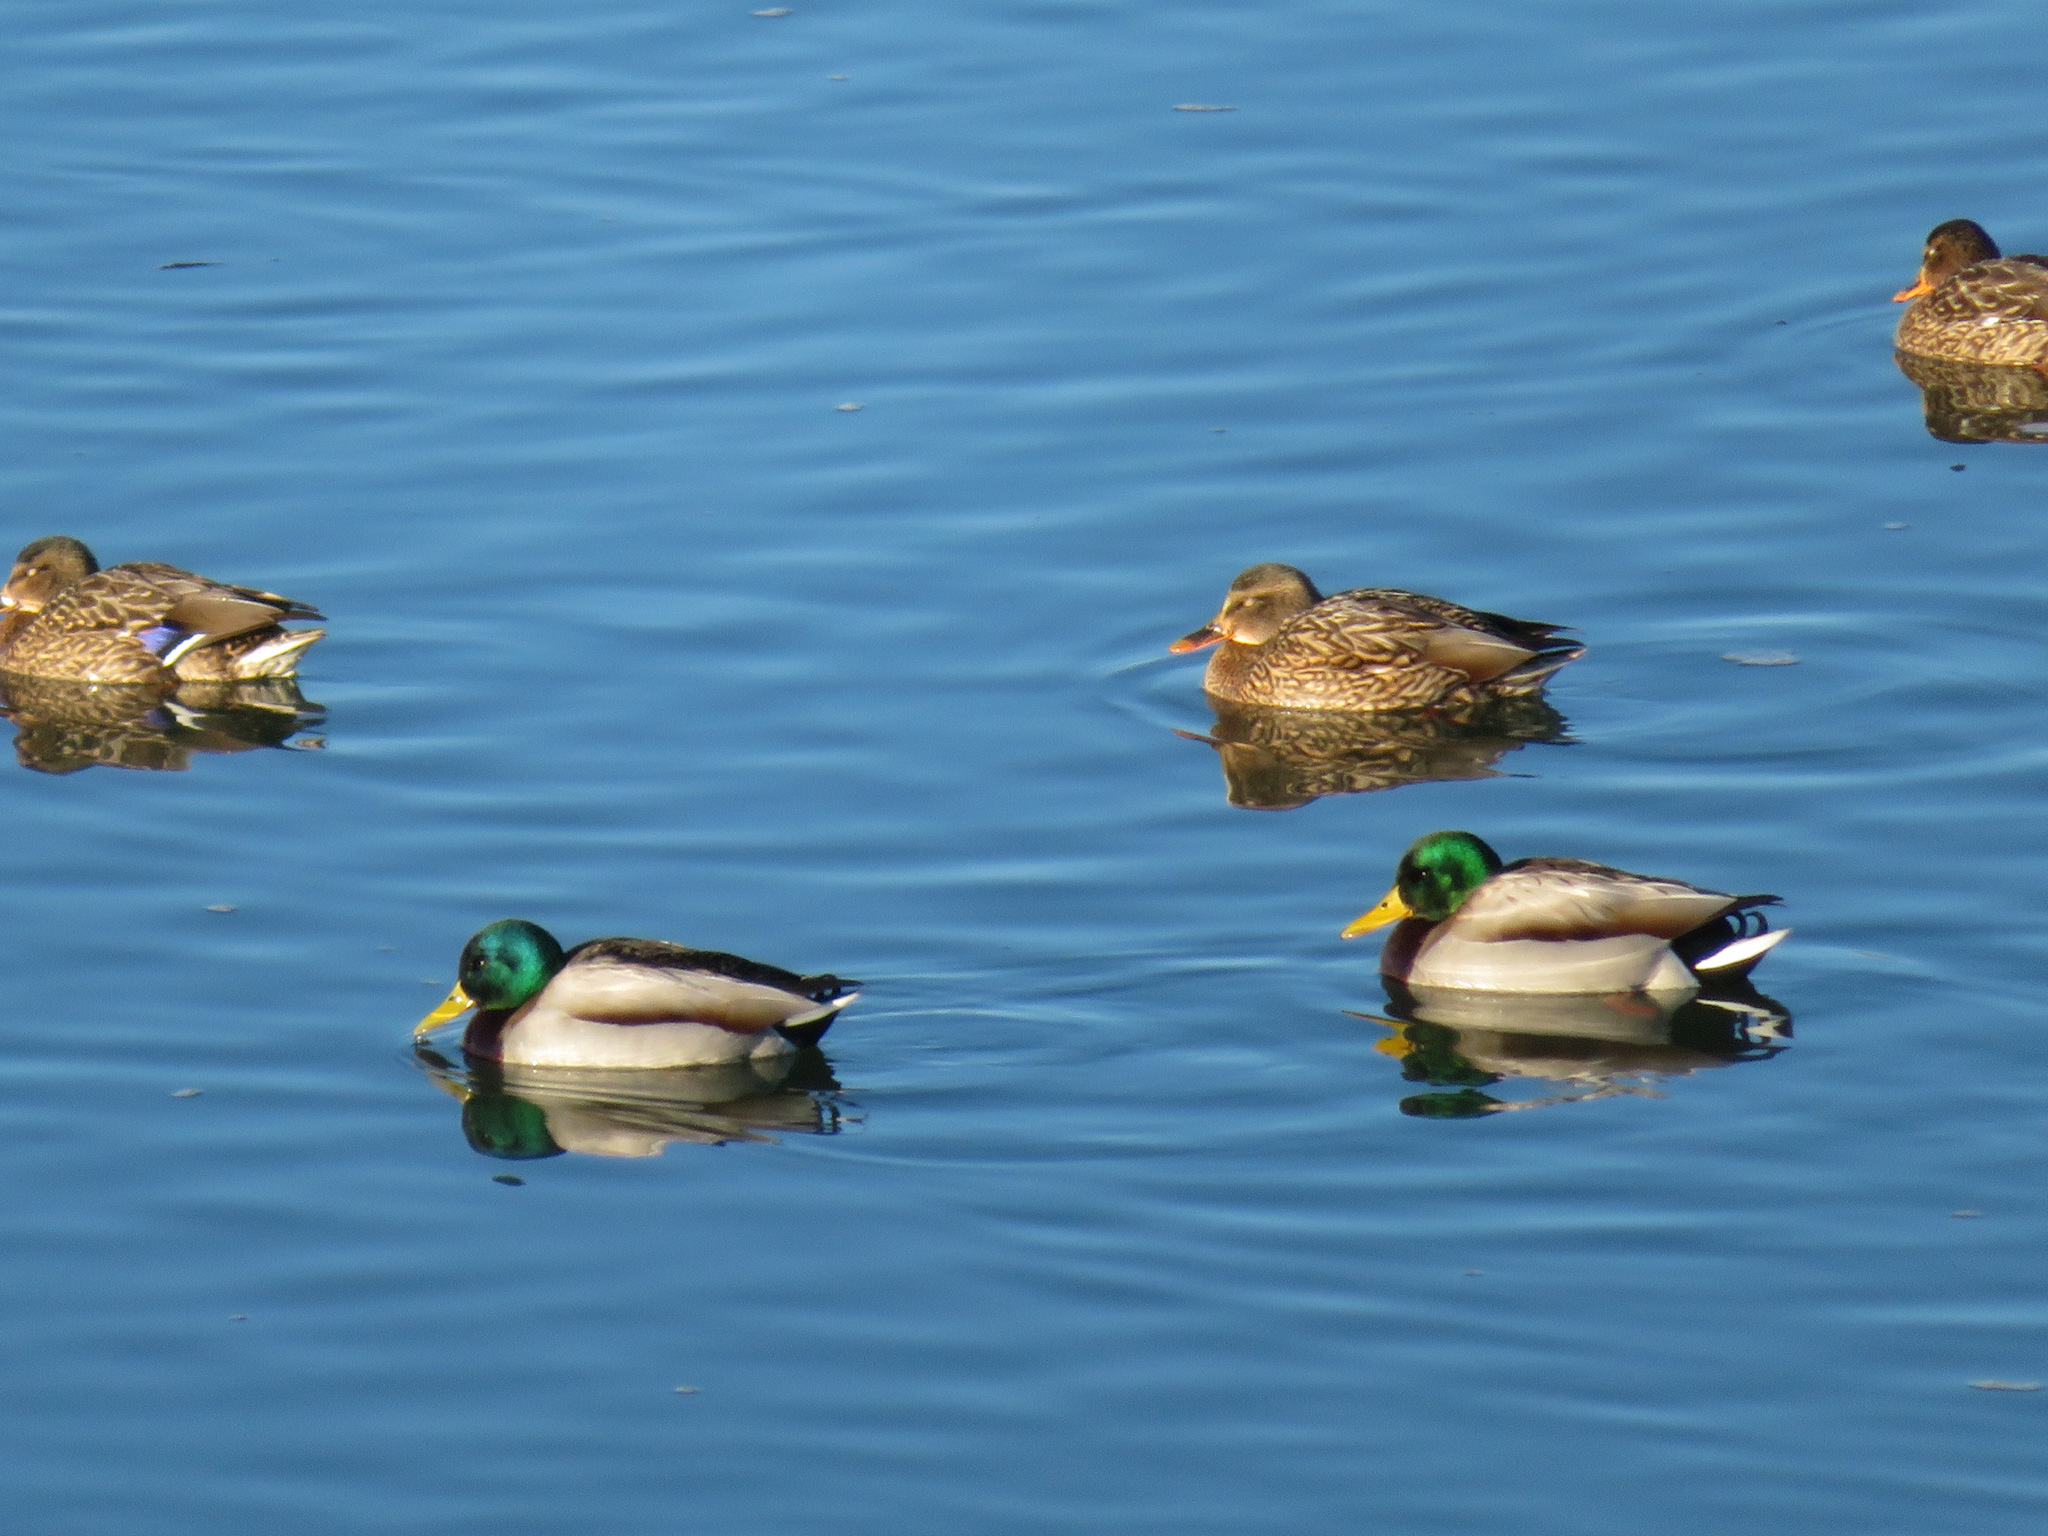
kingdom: Animalia
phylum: Chordata
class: Aves
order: Anseriformes
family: Anatidae
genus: Anas
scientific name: Anas platyrhynchos
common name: Mallard
